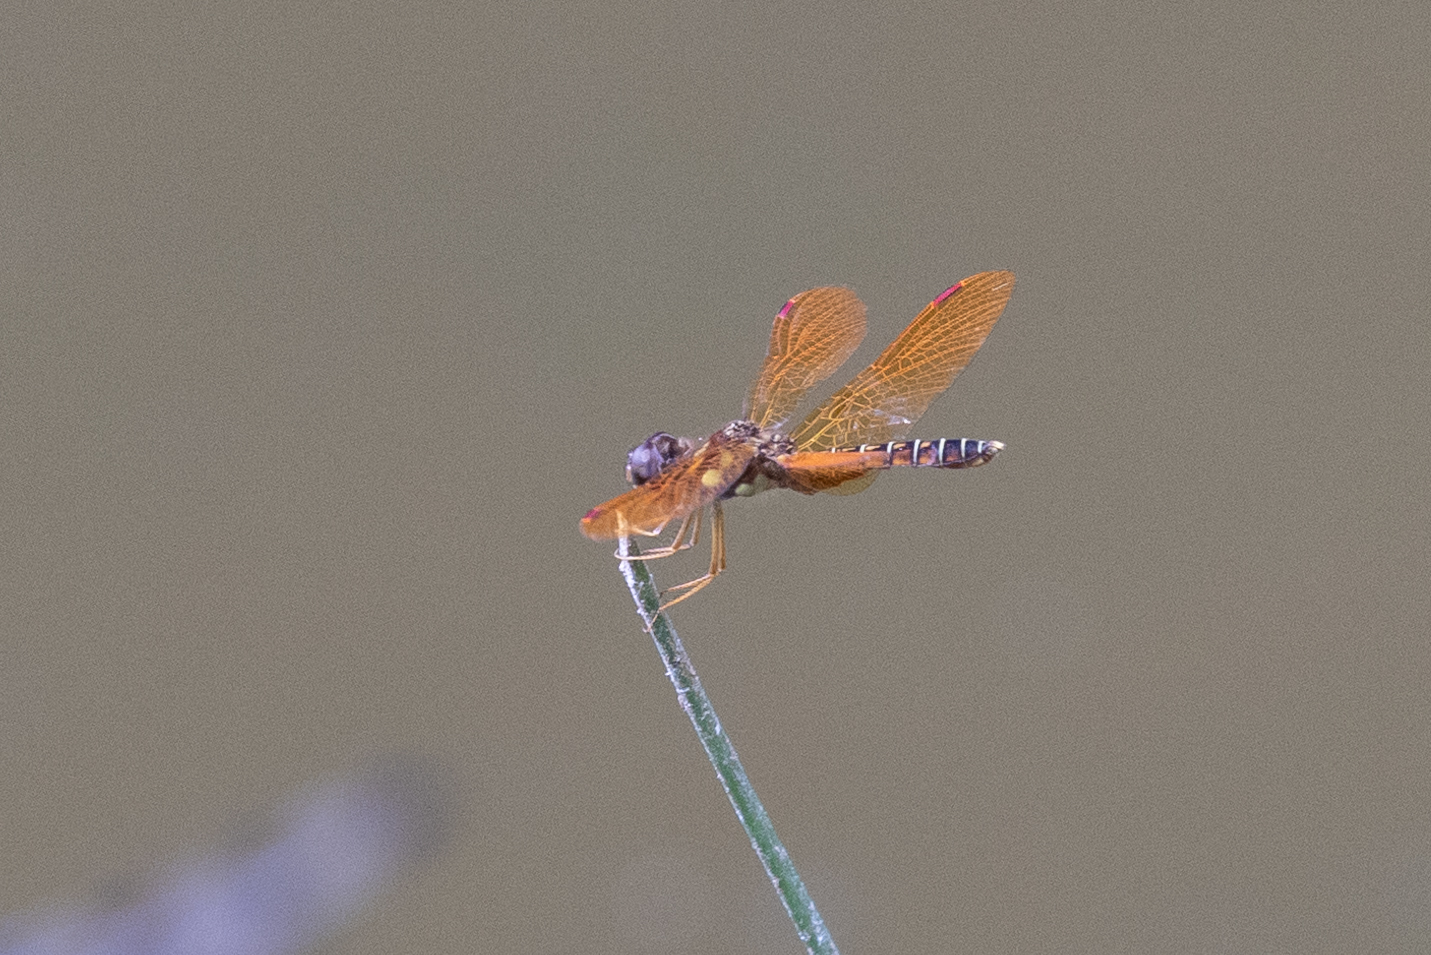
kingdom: Animalia
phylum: Arthropoda
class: Insecta
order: Odonata
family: Libellulidae
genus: Perithemis
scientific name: Perithemis tenera
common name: Eastern amberwing
